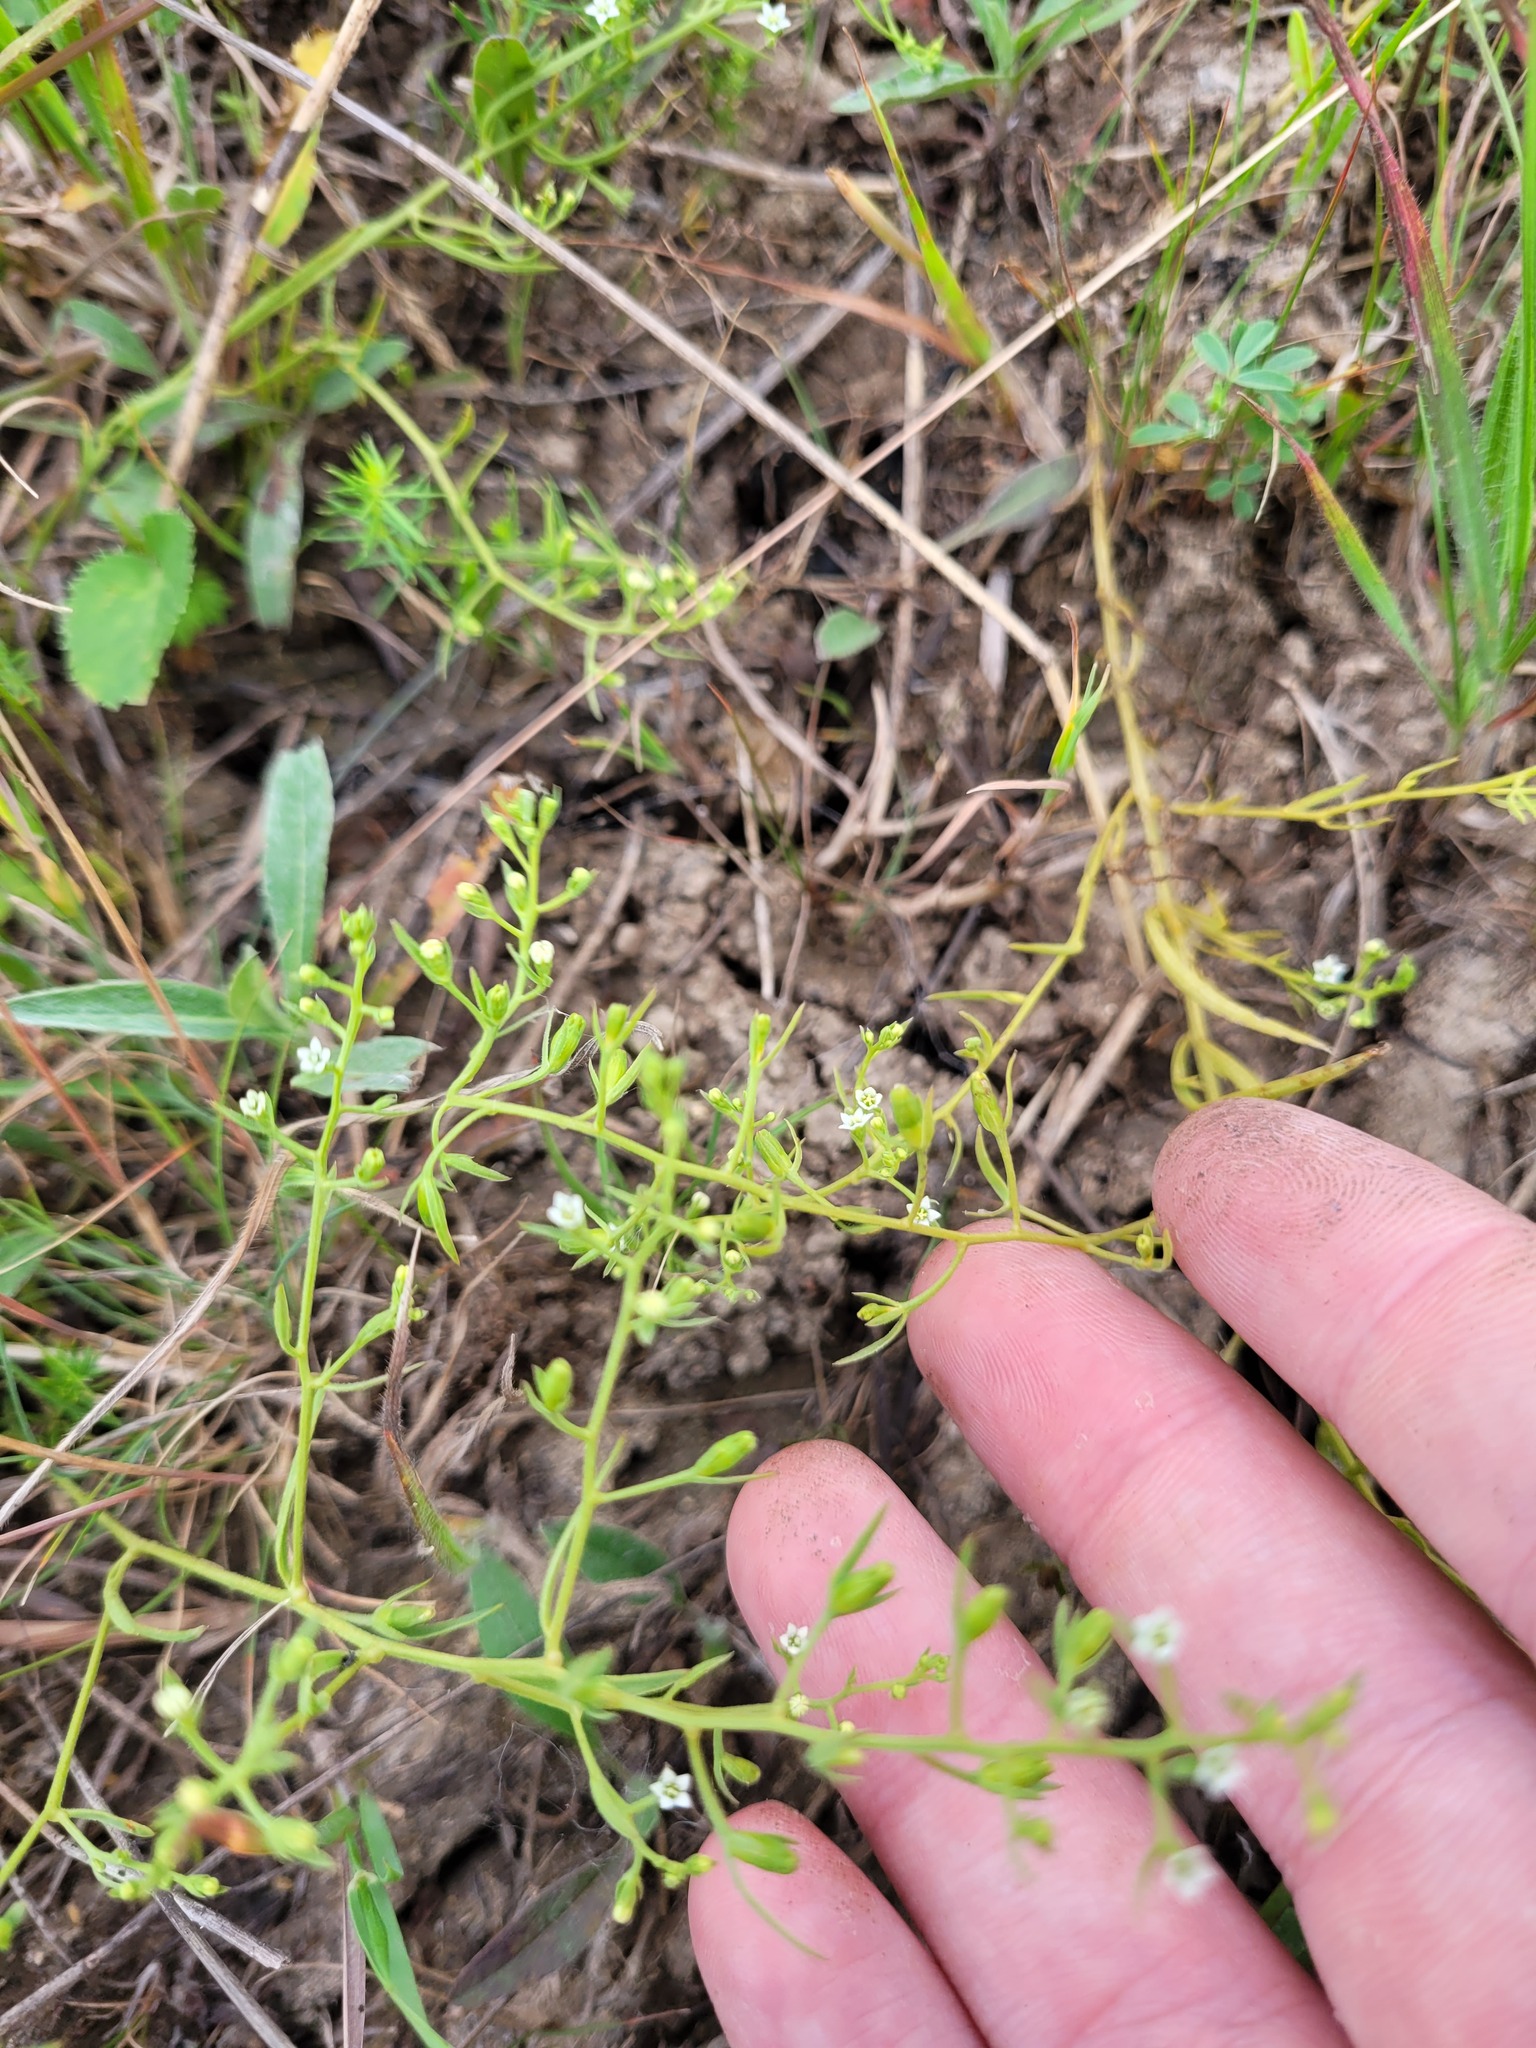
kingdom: Plantae
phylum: Tracheophyta
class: Magnoliopsida
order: Santalales
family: Thesiaceae
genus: Thesium
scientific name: Thesium ramosum
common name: Field thesium
